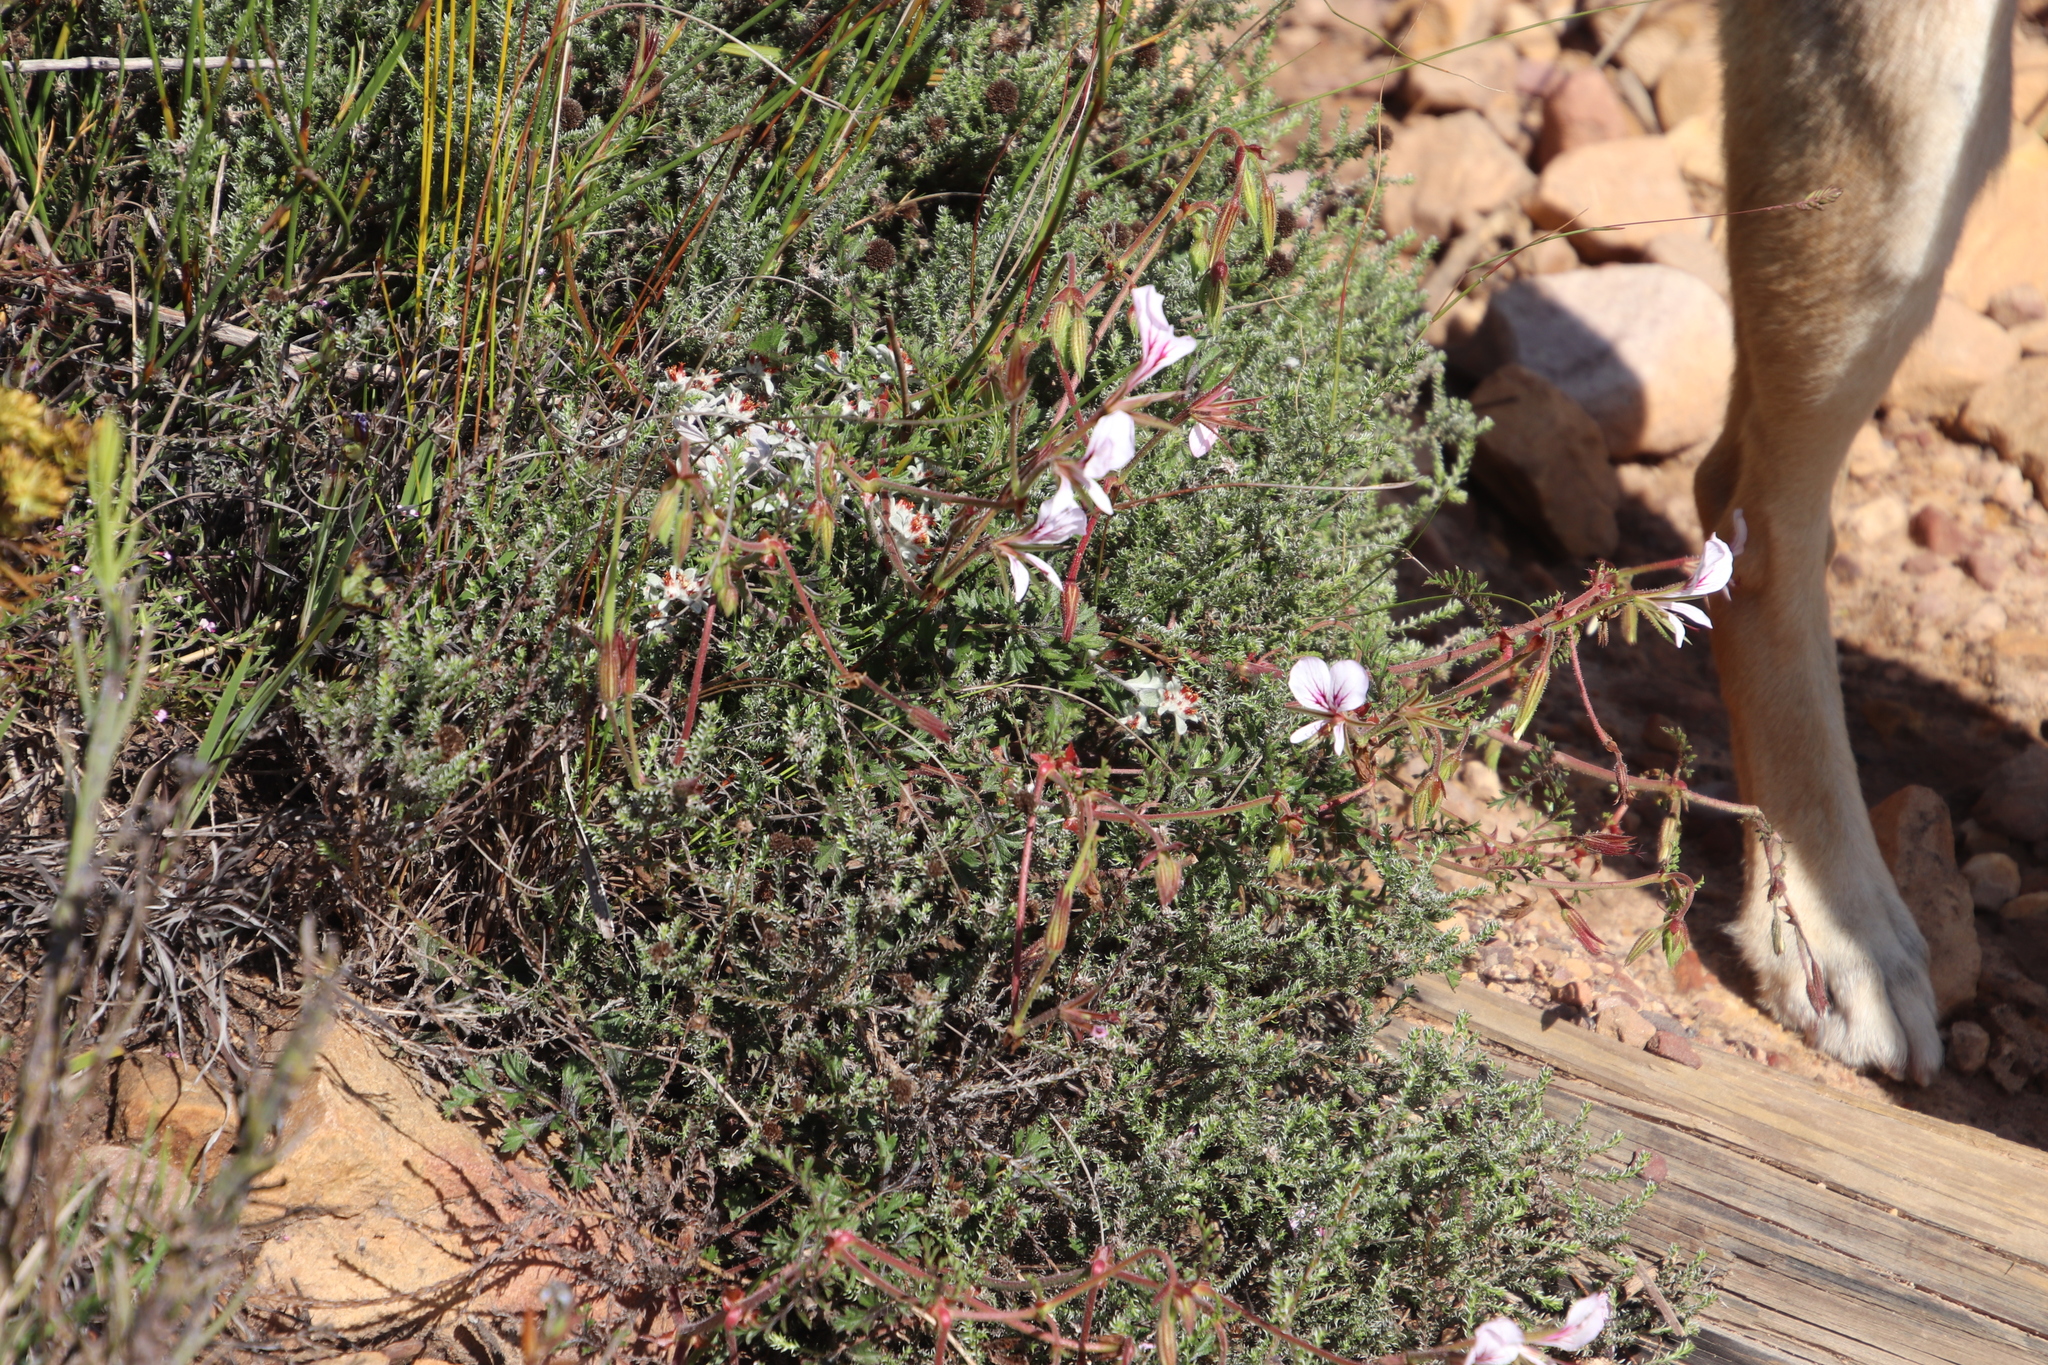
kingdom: Plantae
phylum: Tracheophyta
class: Magnoliopsida
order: Geraniales
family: Geraniaceae
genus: Pelargonium
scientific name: Pelargonium longicaule
